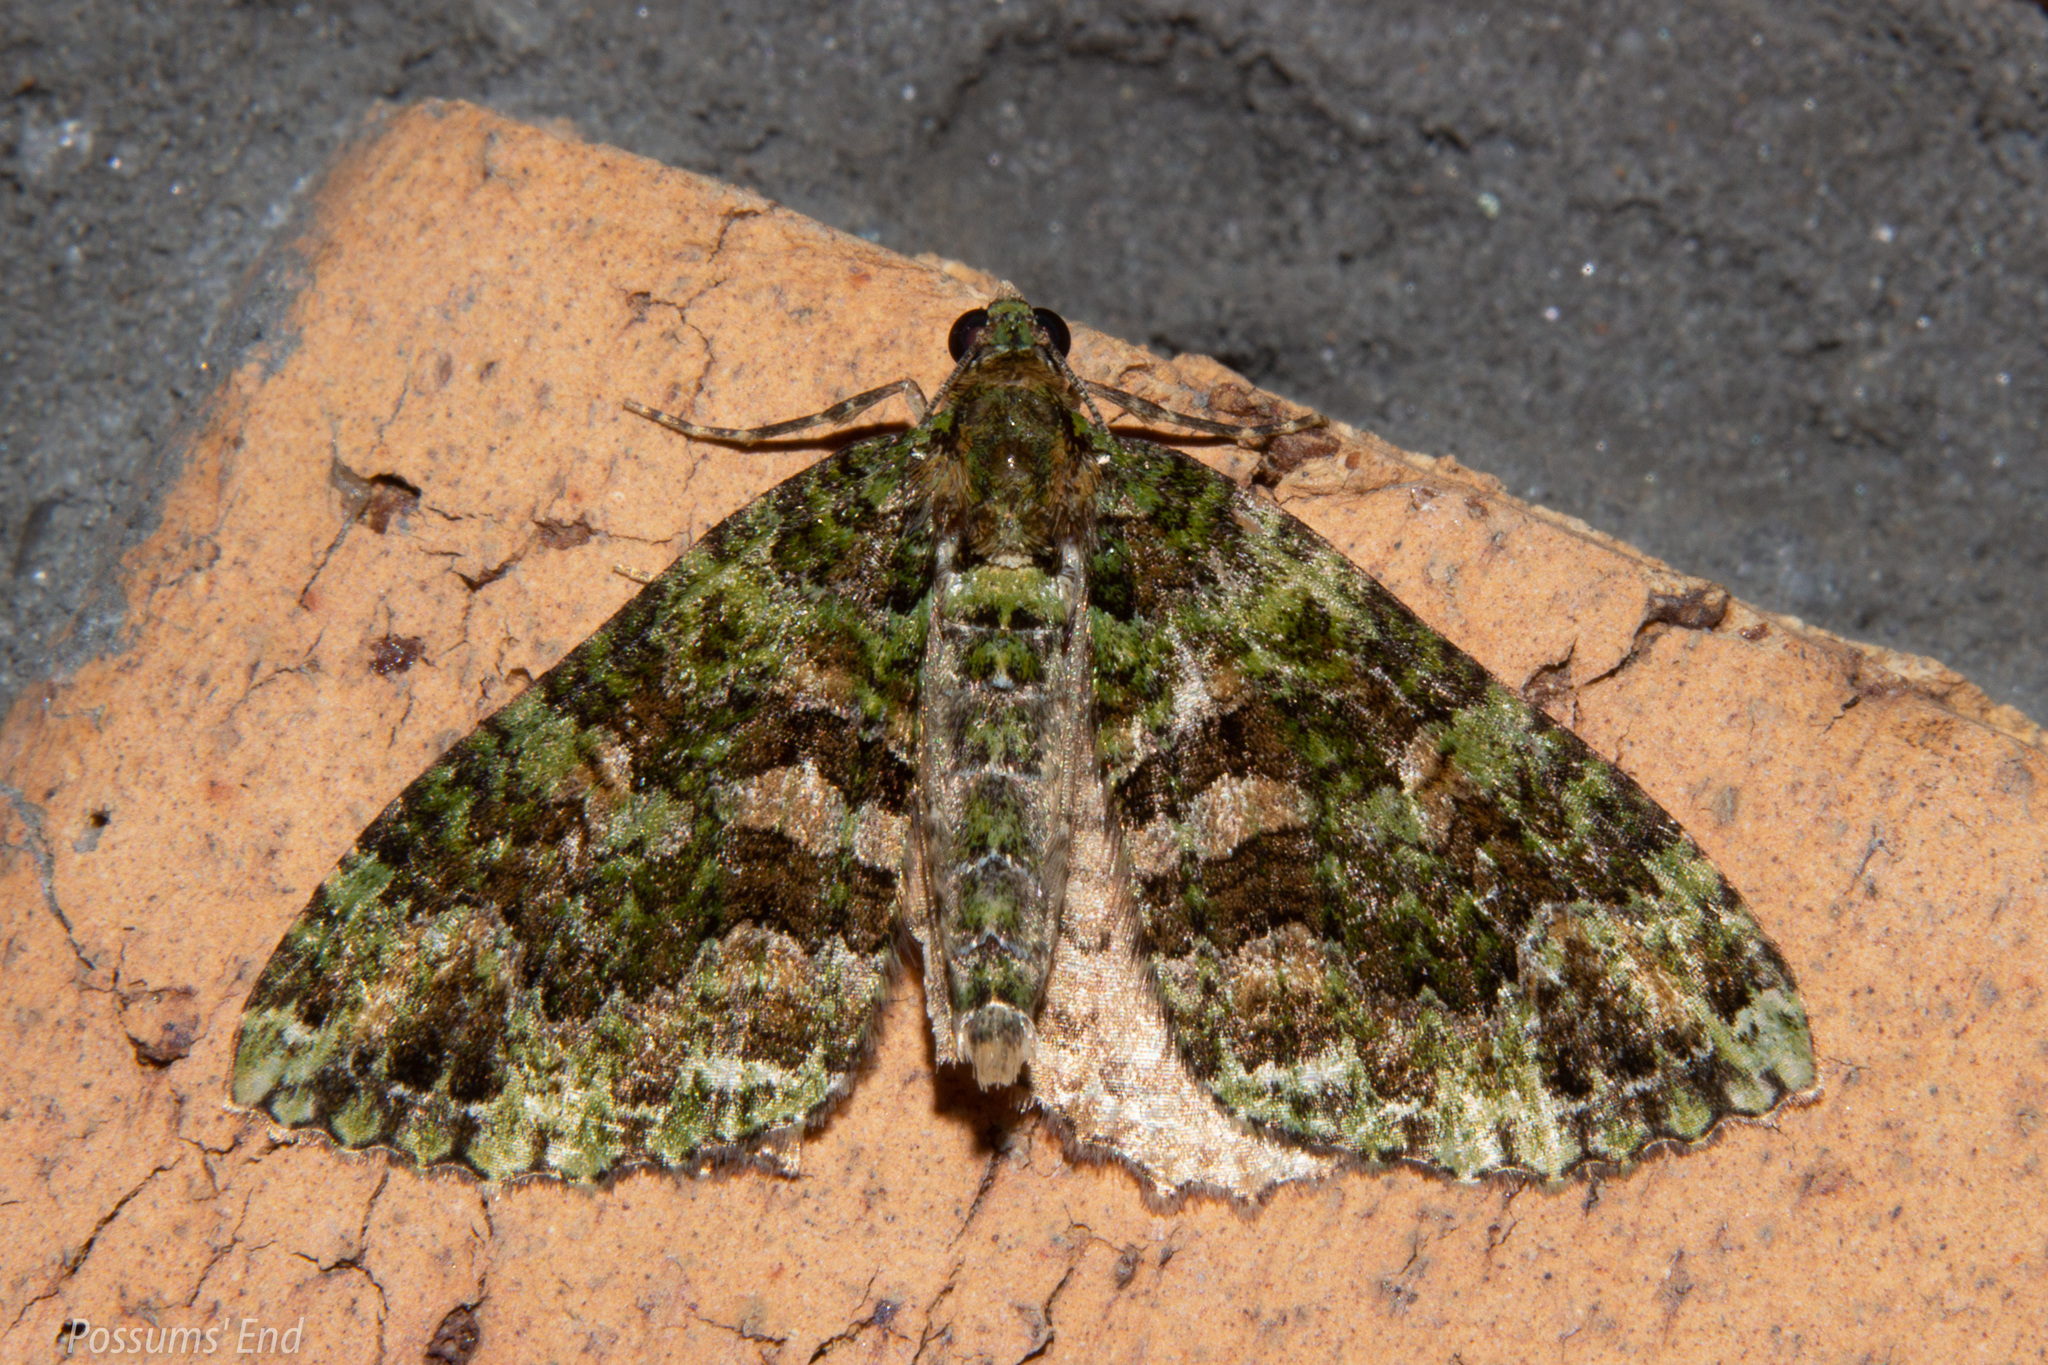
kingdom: Animalia
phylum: Arthropoda
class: Insecta
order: Lepidoptera
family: Geometridae
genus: Austrocidaria
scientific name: Austrocidaria similata
